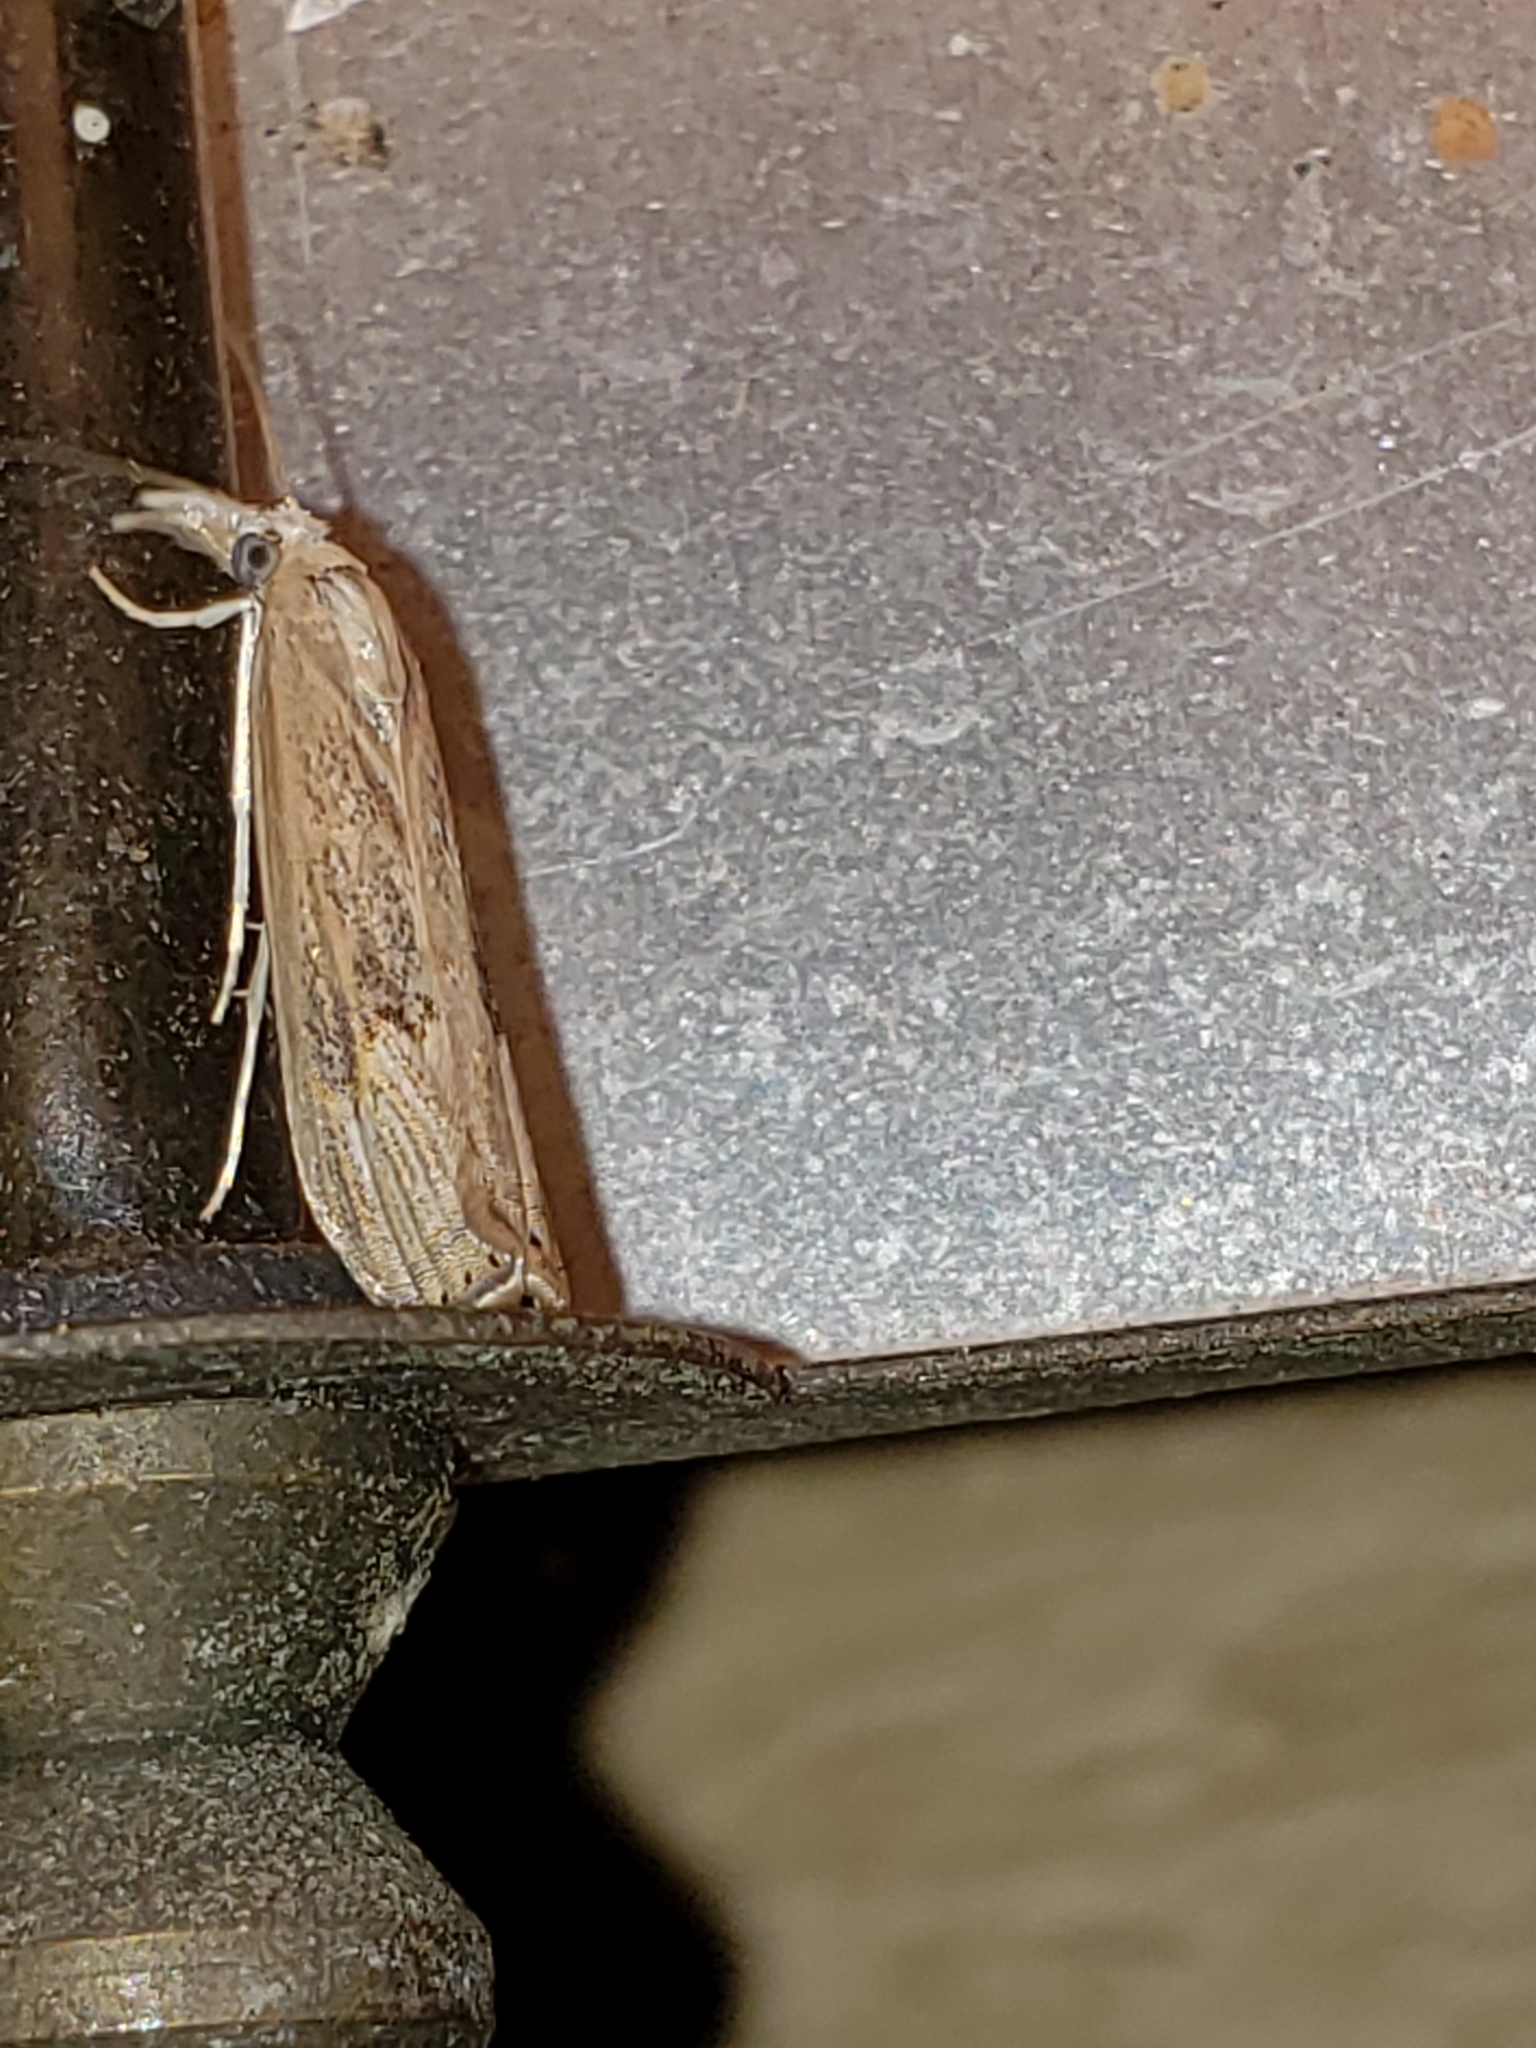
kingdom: Animalia
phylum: Arthropoda
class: Insecta
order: Lepidoptera
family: Crambidae
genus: Parapediasia
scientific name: Parapediasia teterellus
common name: Bluegrass webworm moth
